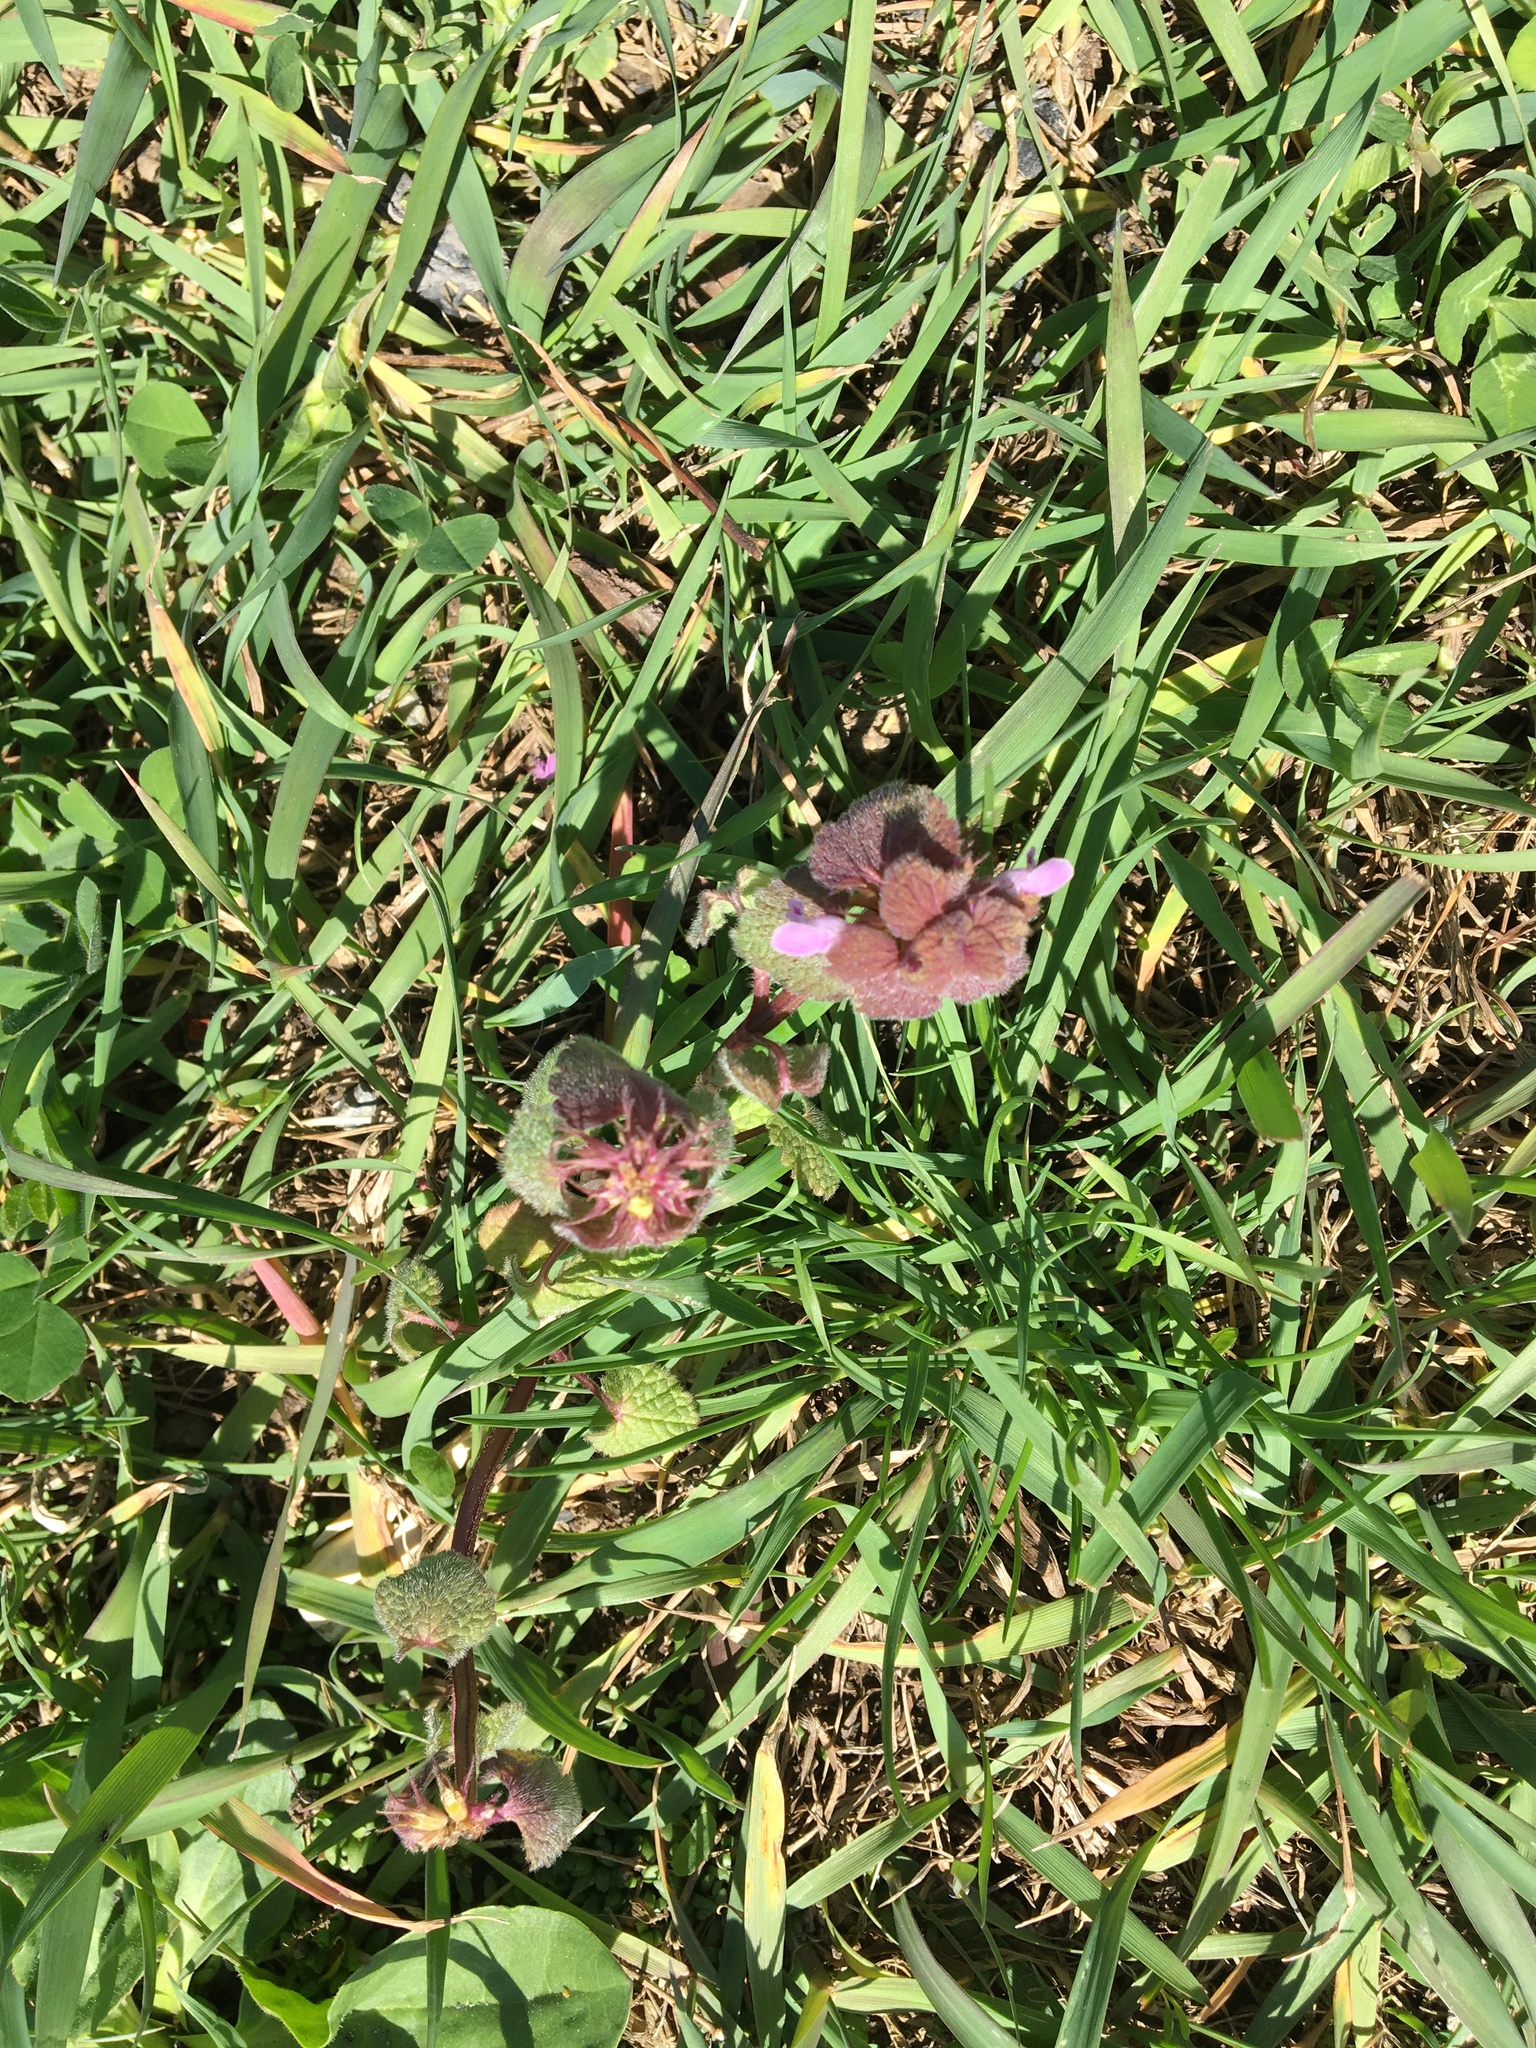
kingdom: Plantae
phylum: Tracheophyta
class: Magnoliopsida
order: Lamiales
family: Lamiaceae
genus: Lamium
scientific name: Lamium purpureum
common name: Red dead-nettle
